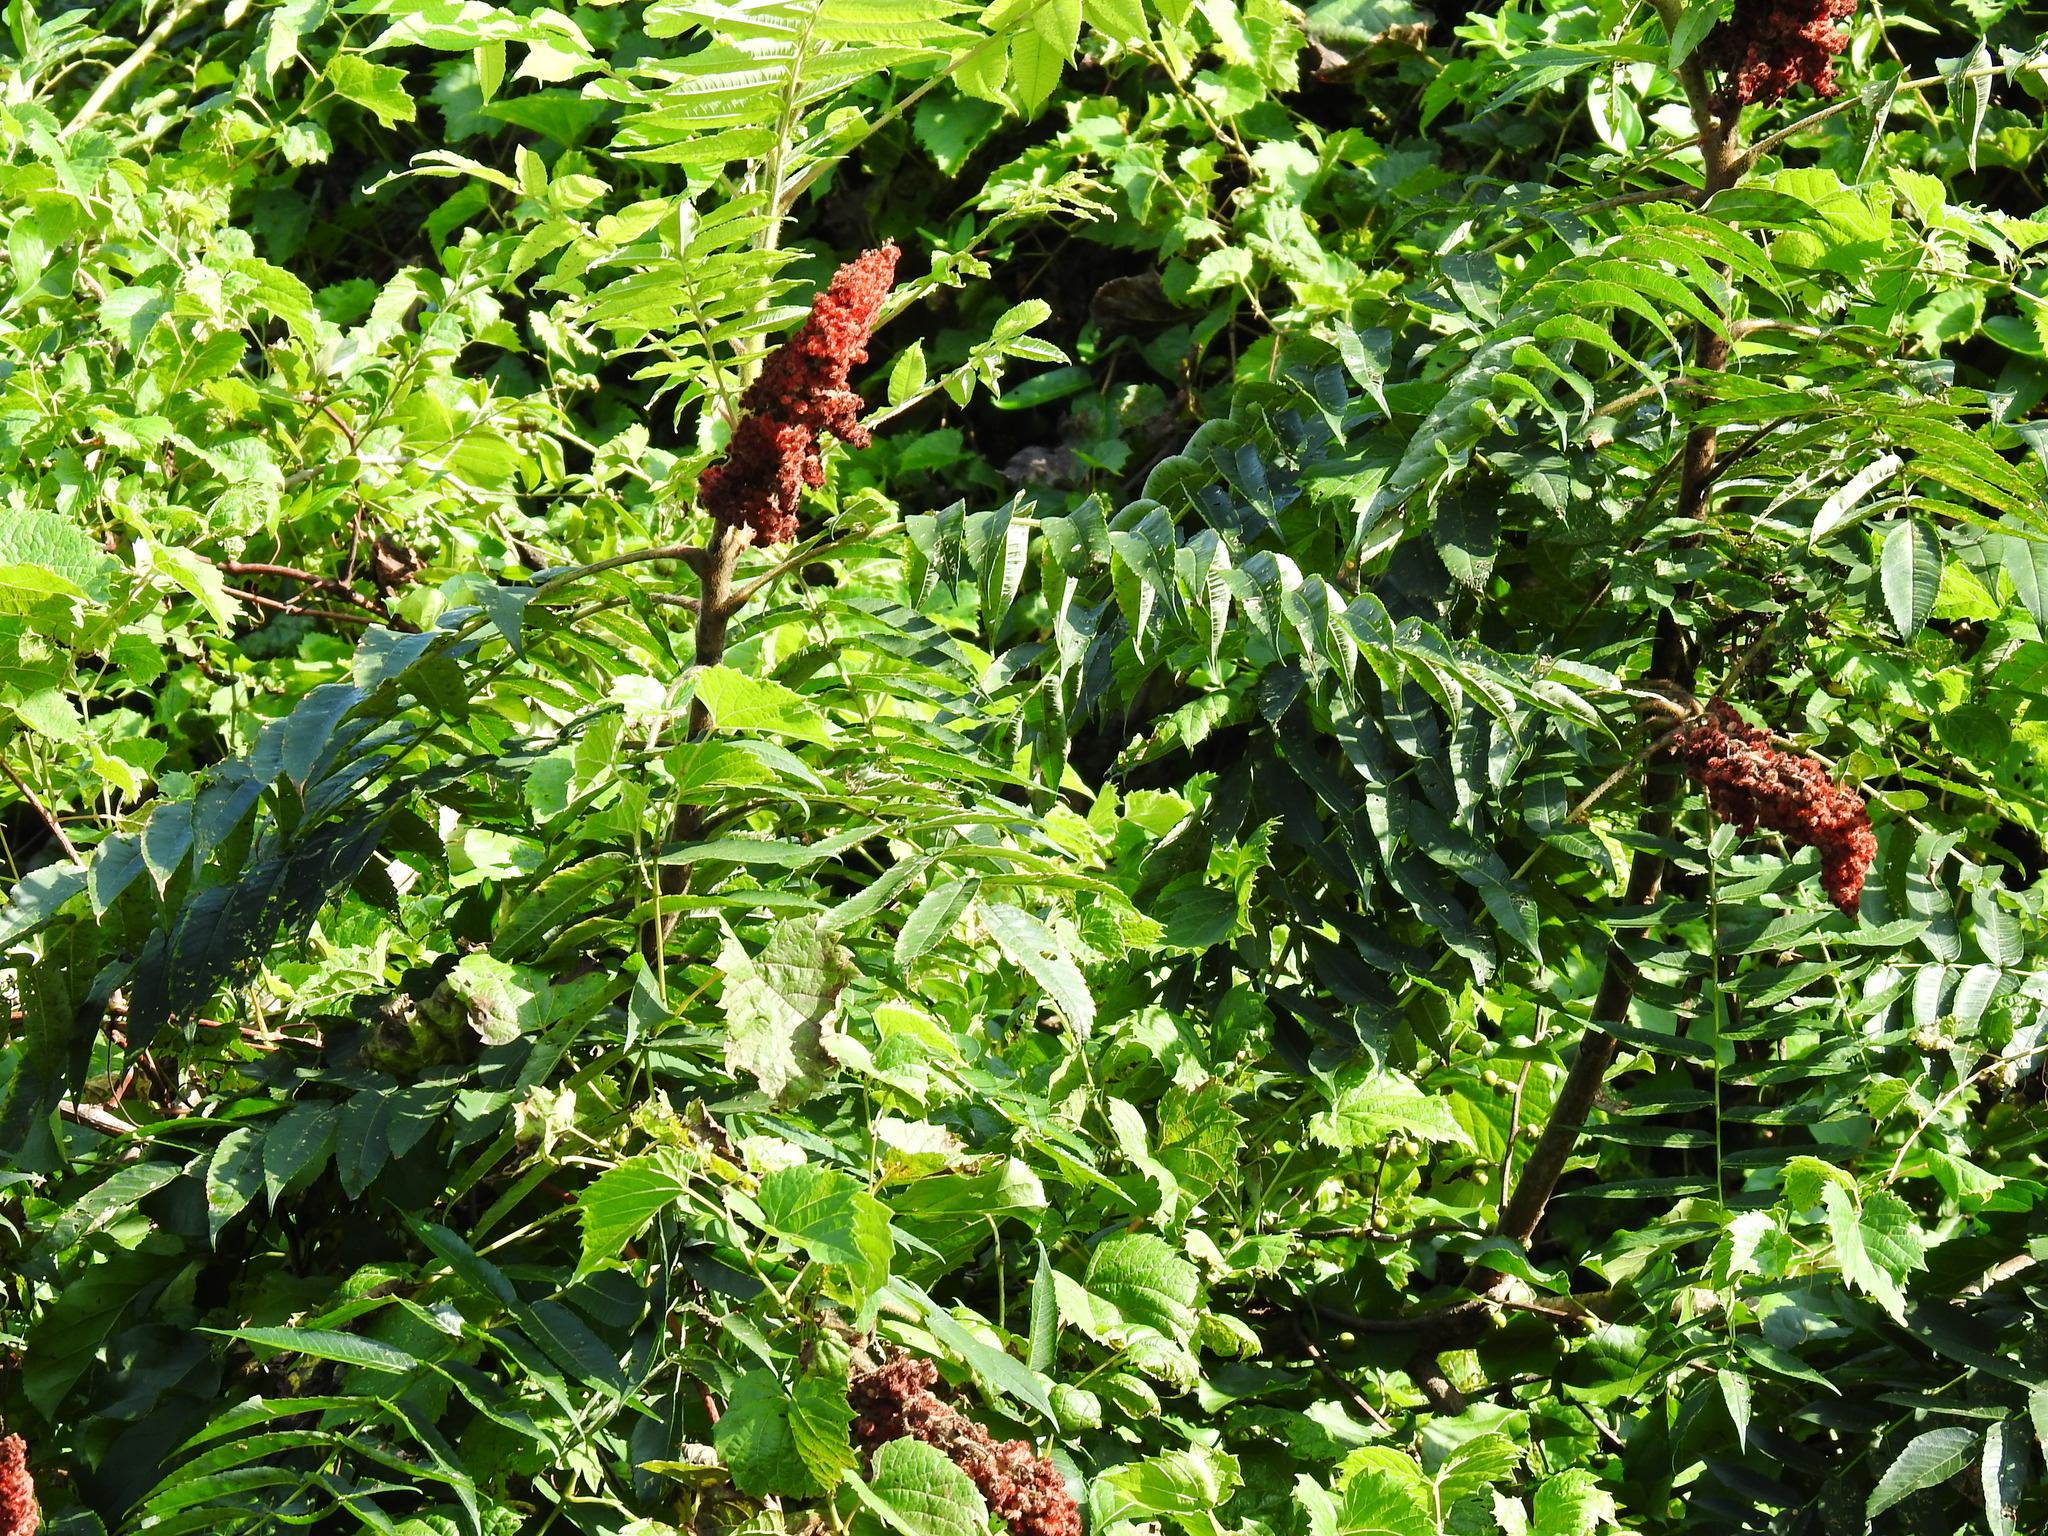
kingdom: Plantae
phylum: Tracheophyta
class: Magnoliopsida
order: Sapindales
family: Anacardiaceae
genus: Rhus
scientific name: Rhus typhina
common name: Staghorn sumac
